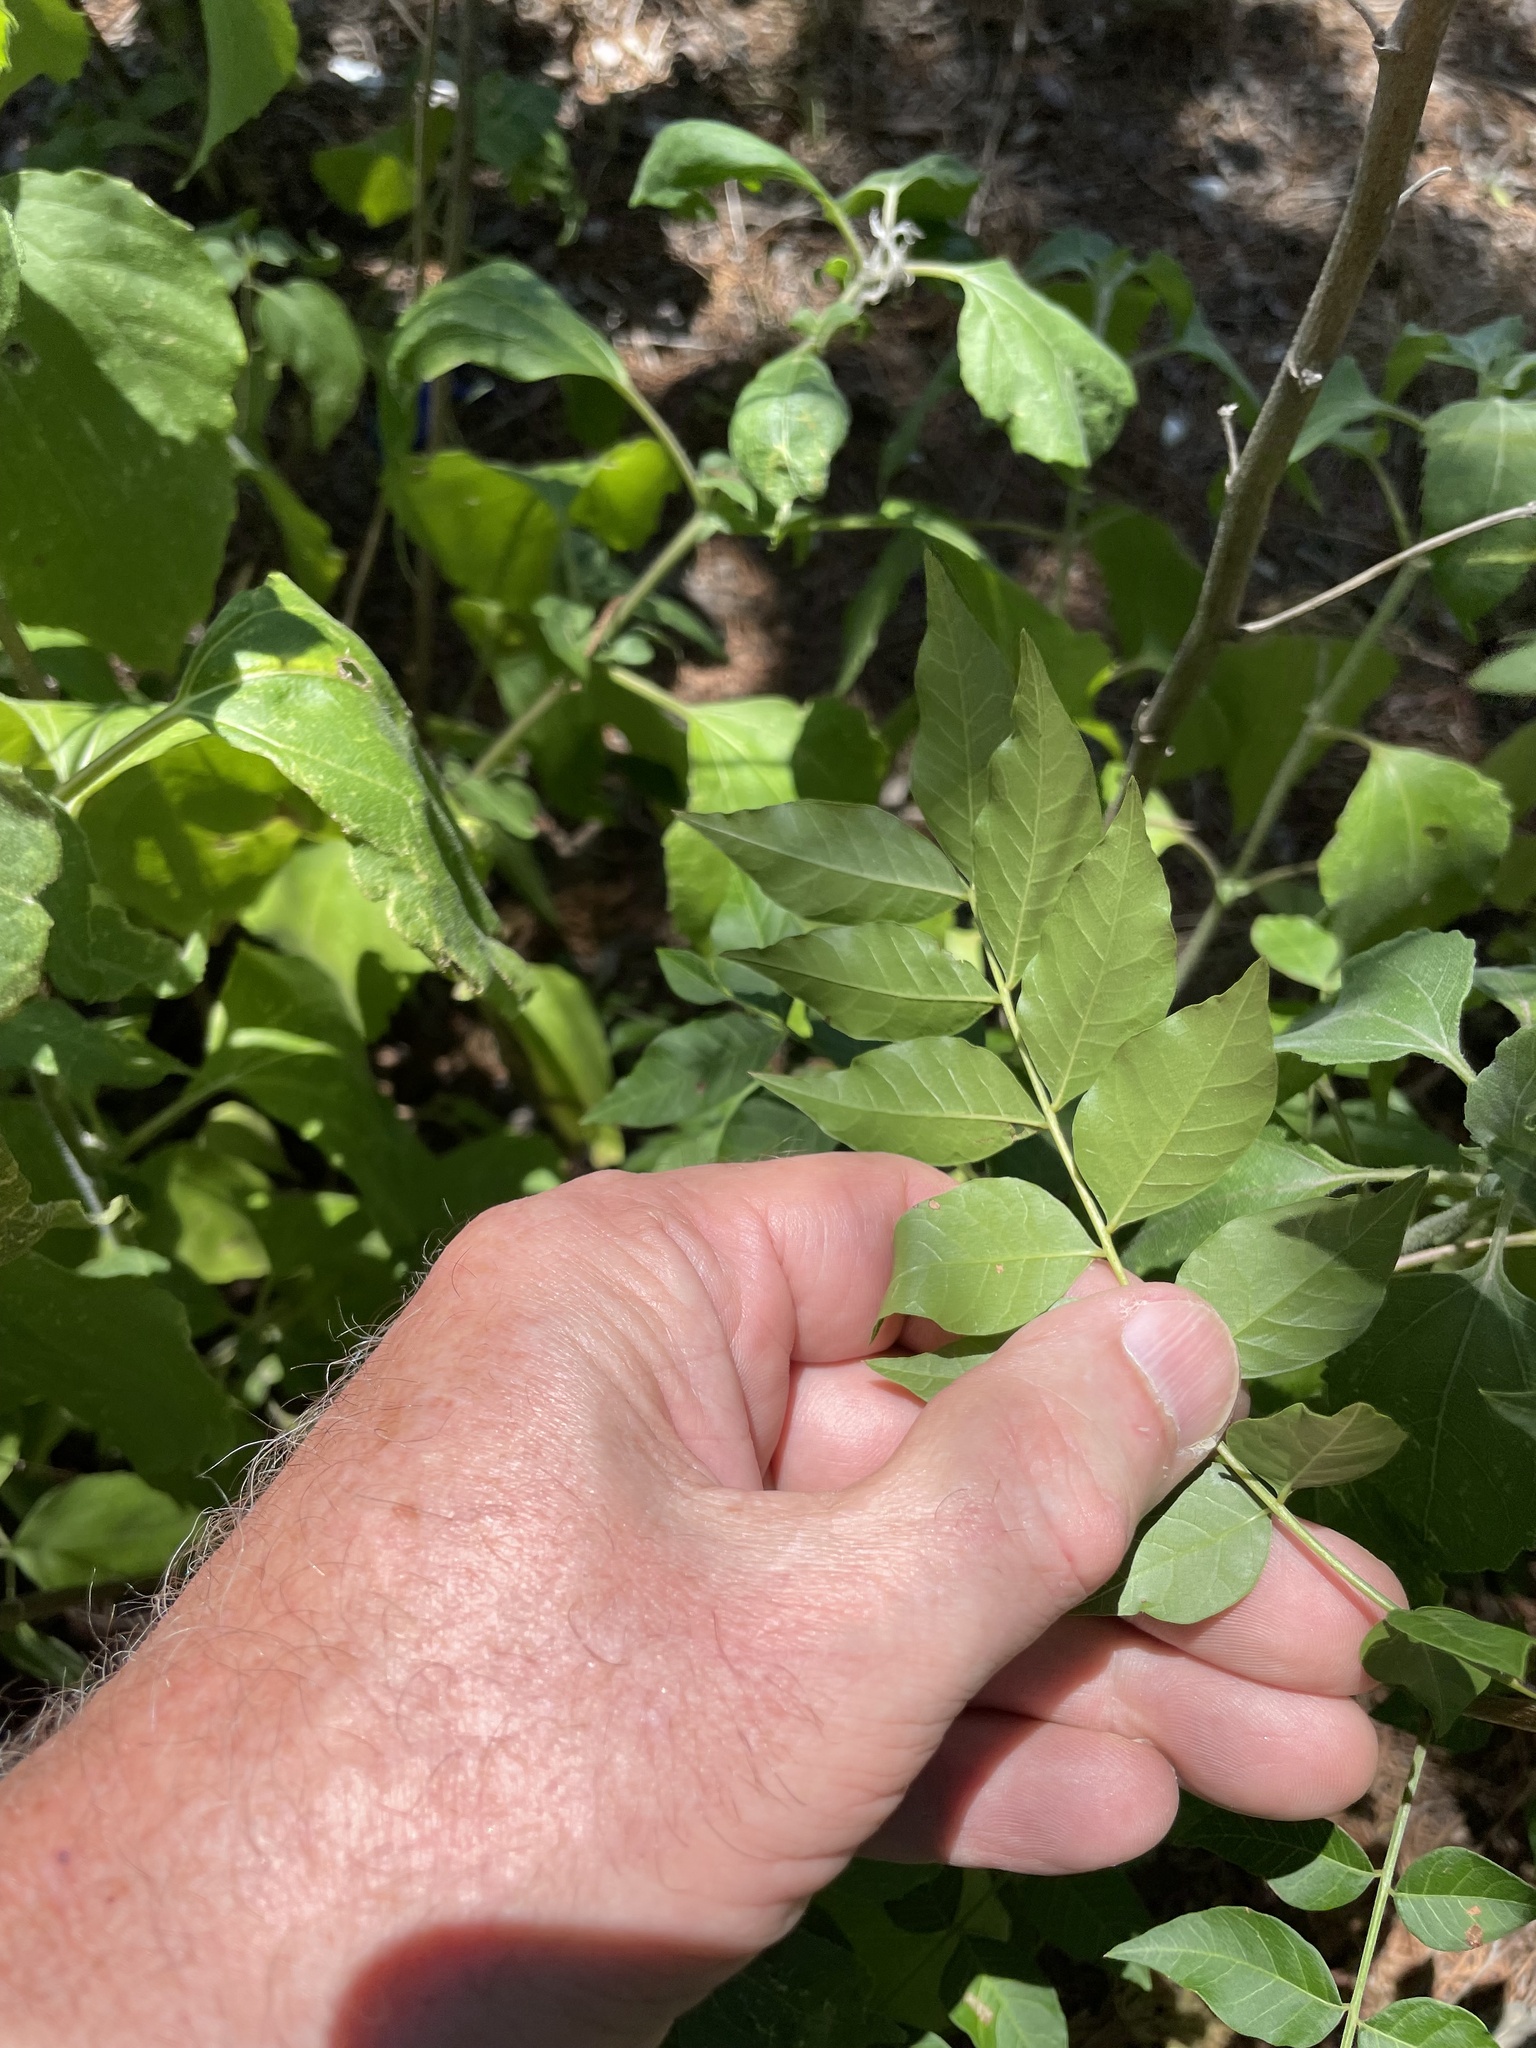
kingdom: Plantae
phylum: Tracheophyta
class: Magnoliopsida
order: Sapindales
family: Anacardiaceae
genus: Pistacia
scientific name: Pistacia chinensis
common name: Chinese pistache
